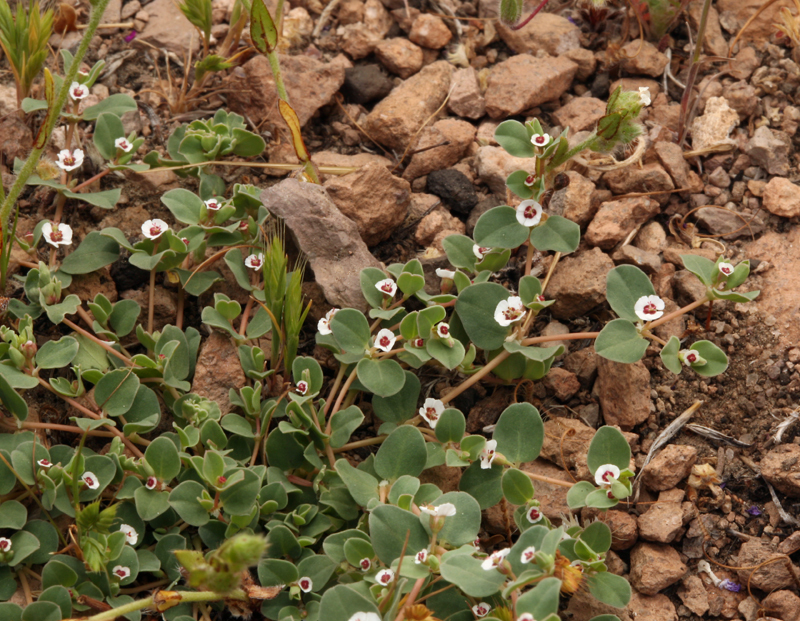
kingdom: Plantae
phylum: Tracheophyta
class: Magnoliopsida
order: Malpighiales
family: Euphorbiaceae
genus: Euphorbia
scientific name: Euphorbia albomarginata
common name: Whitemargin sandmat
